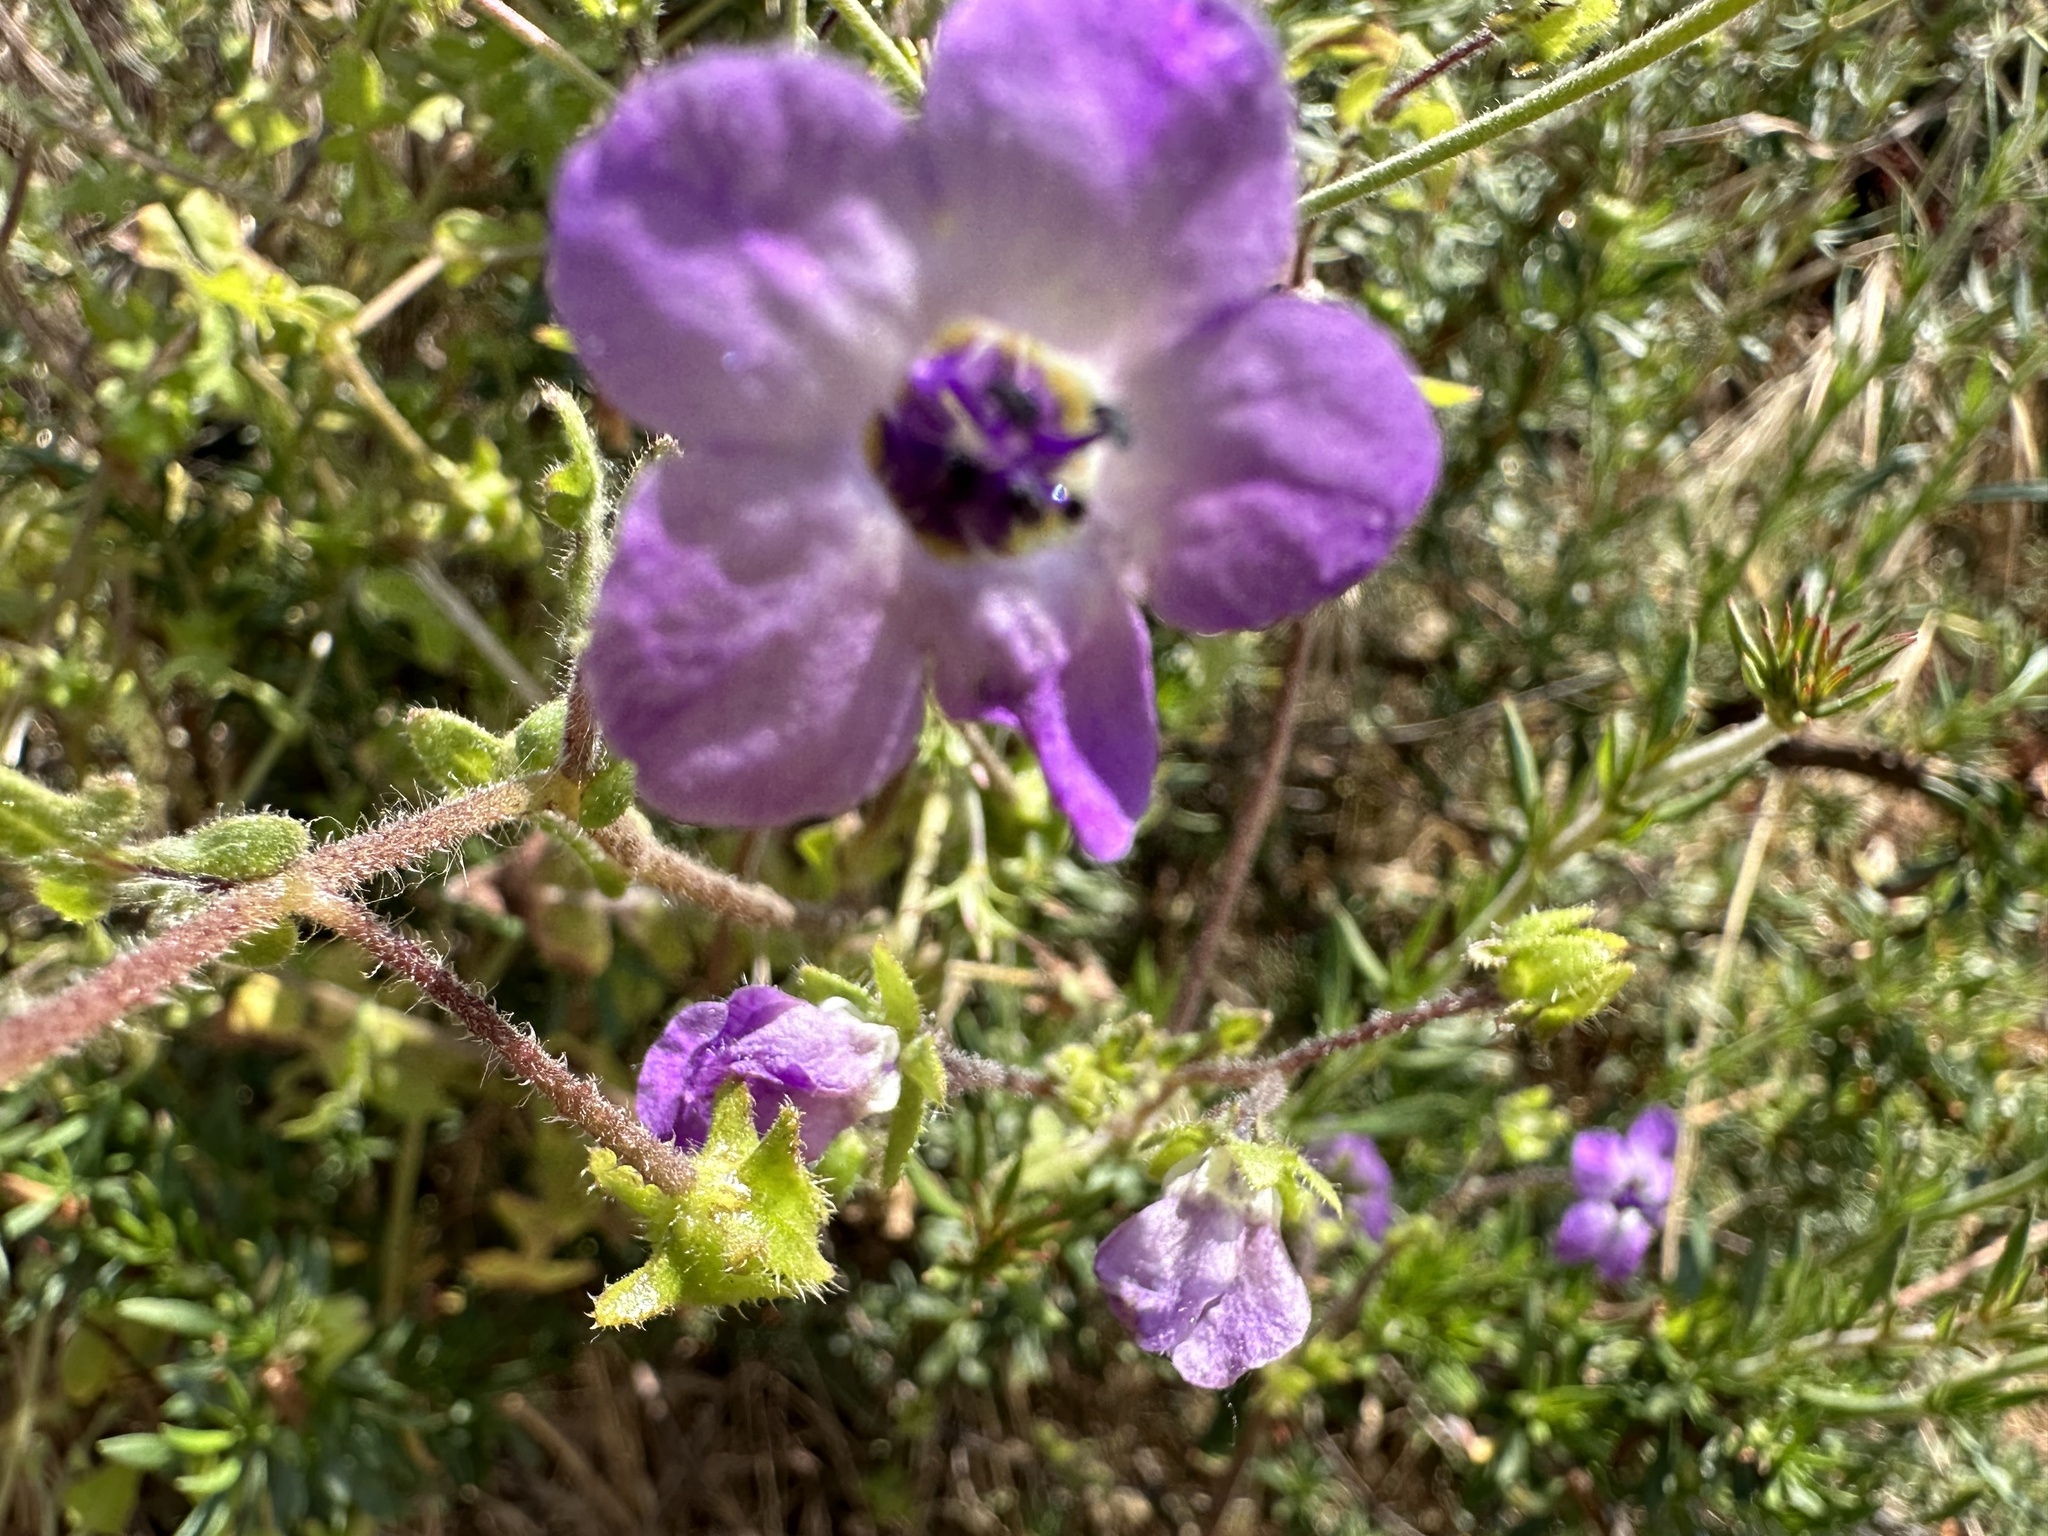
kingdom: Plantae
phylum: Tracheophyta
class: Magnoliopsida
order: Boraginales
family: Hydrophyllaceae
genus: Pholistoma
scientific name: Pholistoma auritum
